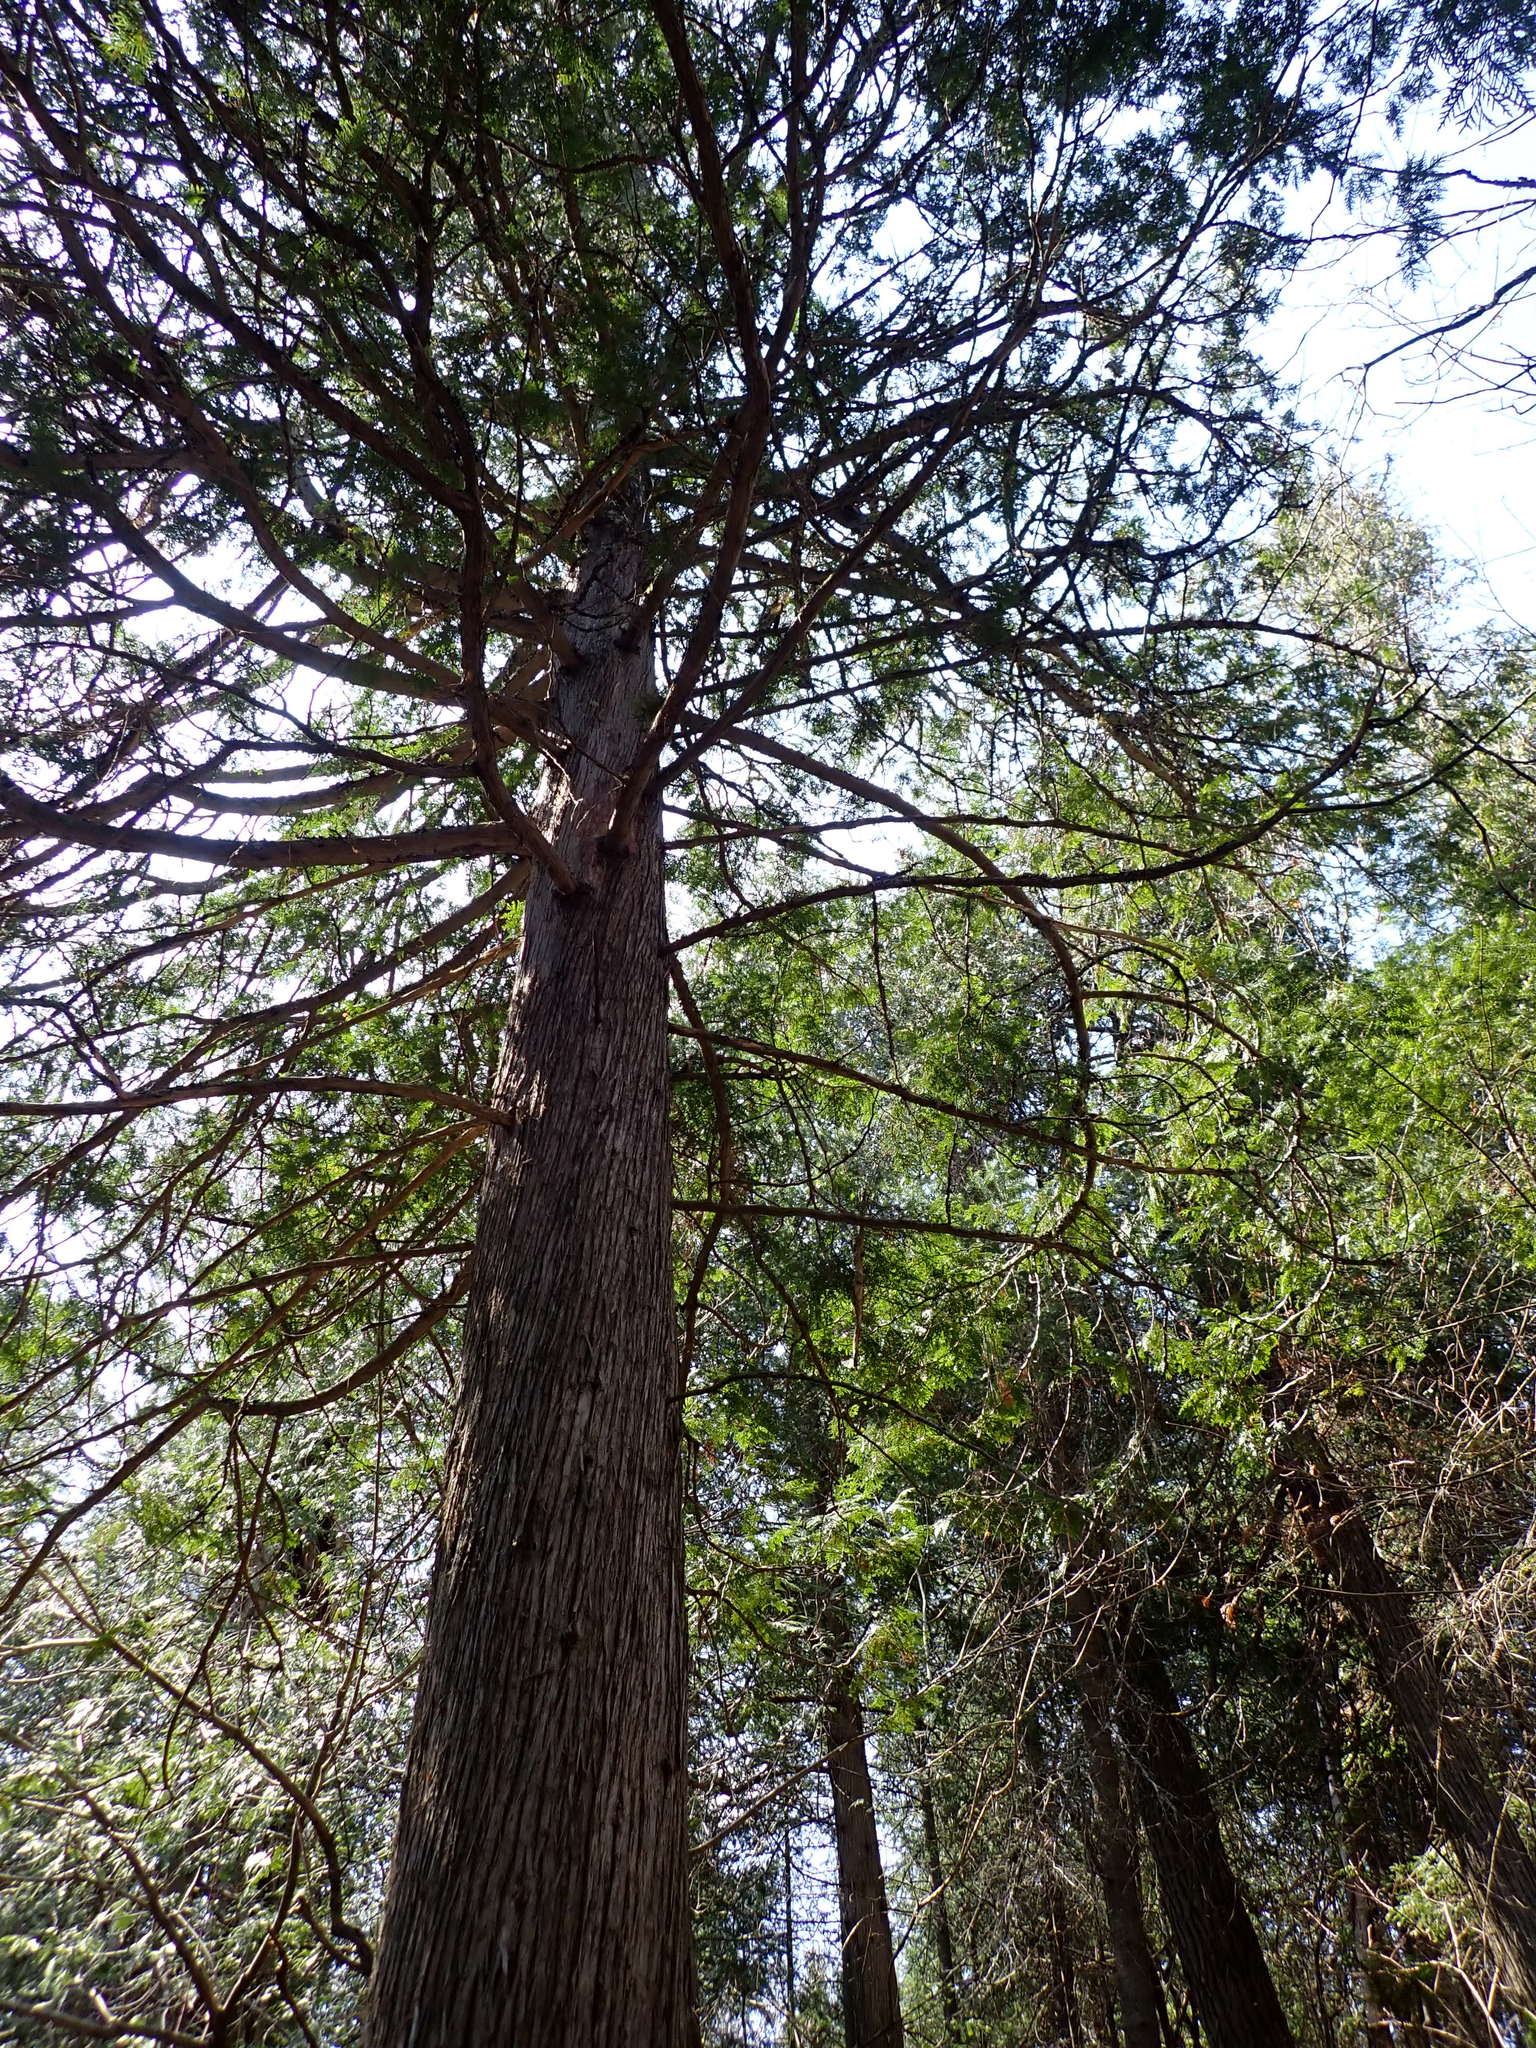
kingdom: Plantae
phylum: Tracheophyta
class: Pinopsida
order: Pinales
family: Cupressaceae
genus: Thuja
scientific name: Thuja occidentalis
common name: Northern white-cedar
